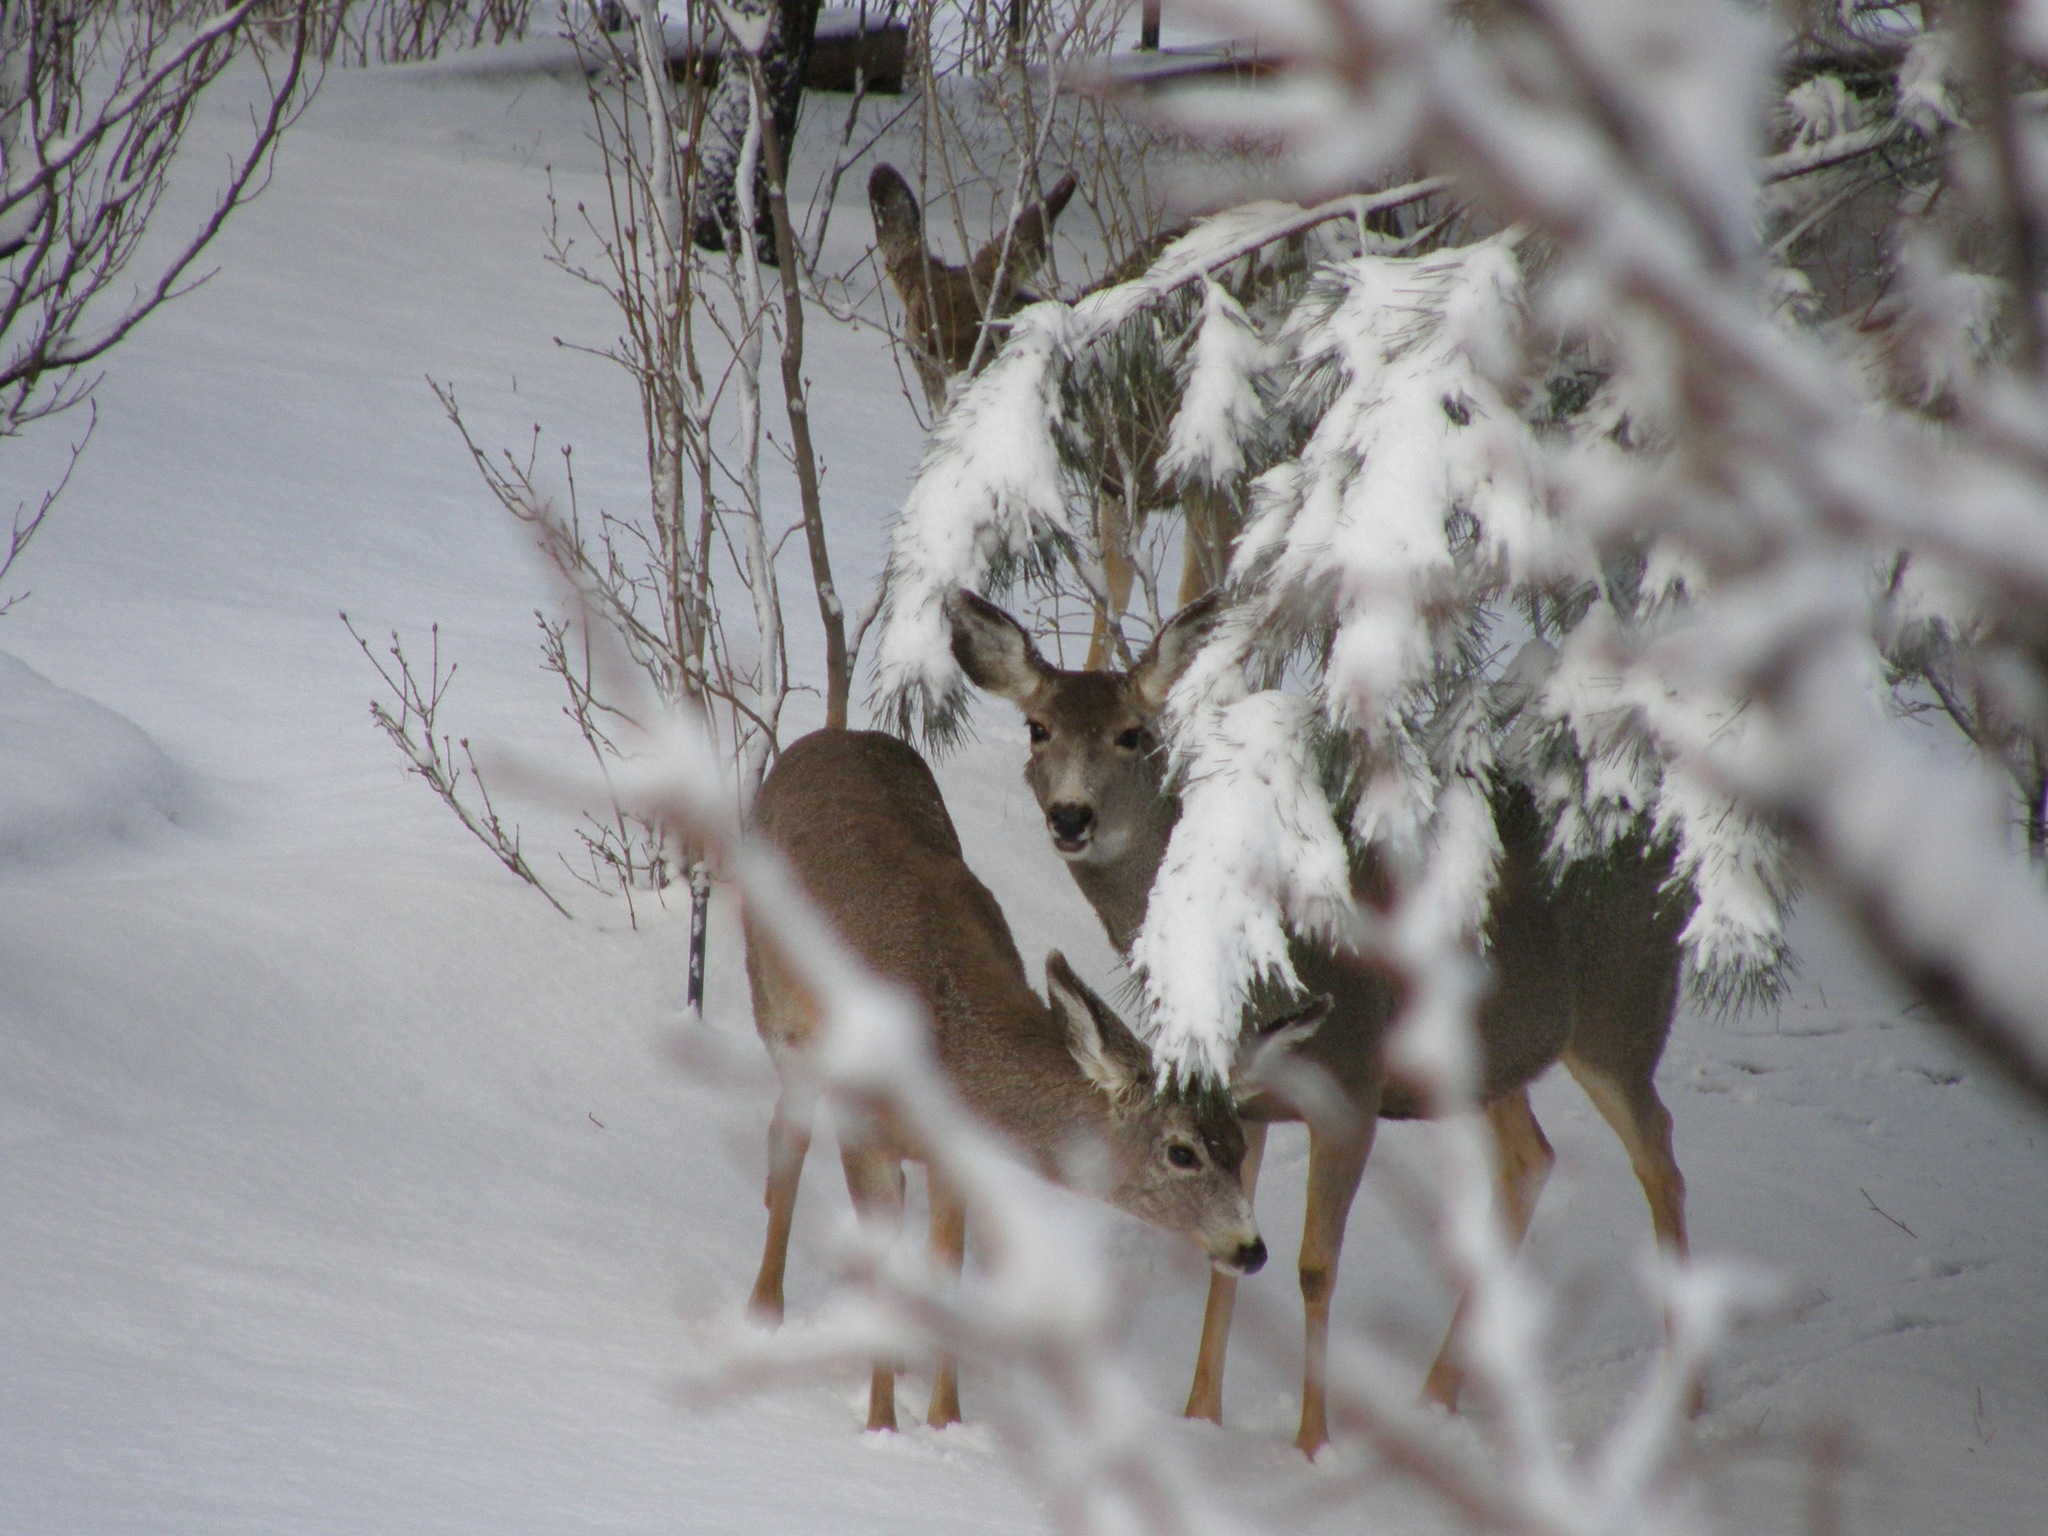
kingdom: Animalia
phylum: Chordata
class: Mammalia
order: Artiodactyla
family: Cervidae
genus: Odocoileus
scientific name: Odocoileus hemionus
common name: Mule deer
